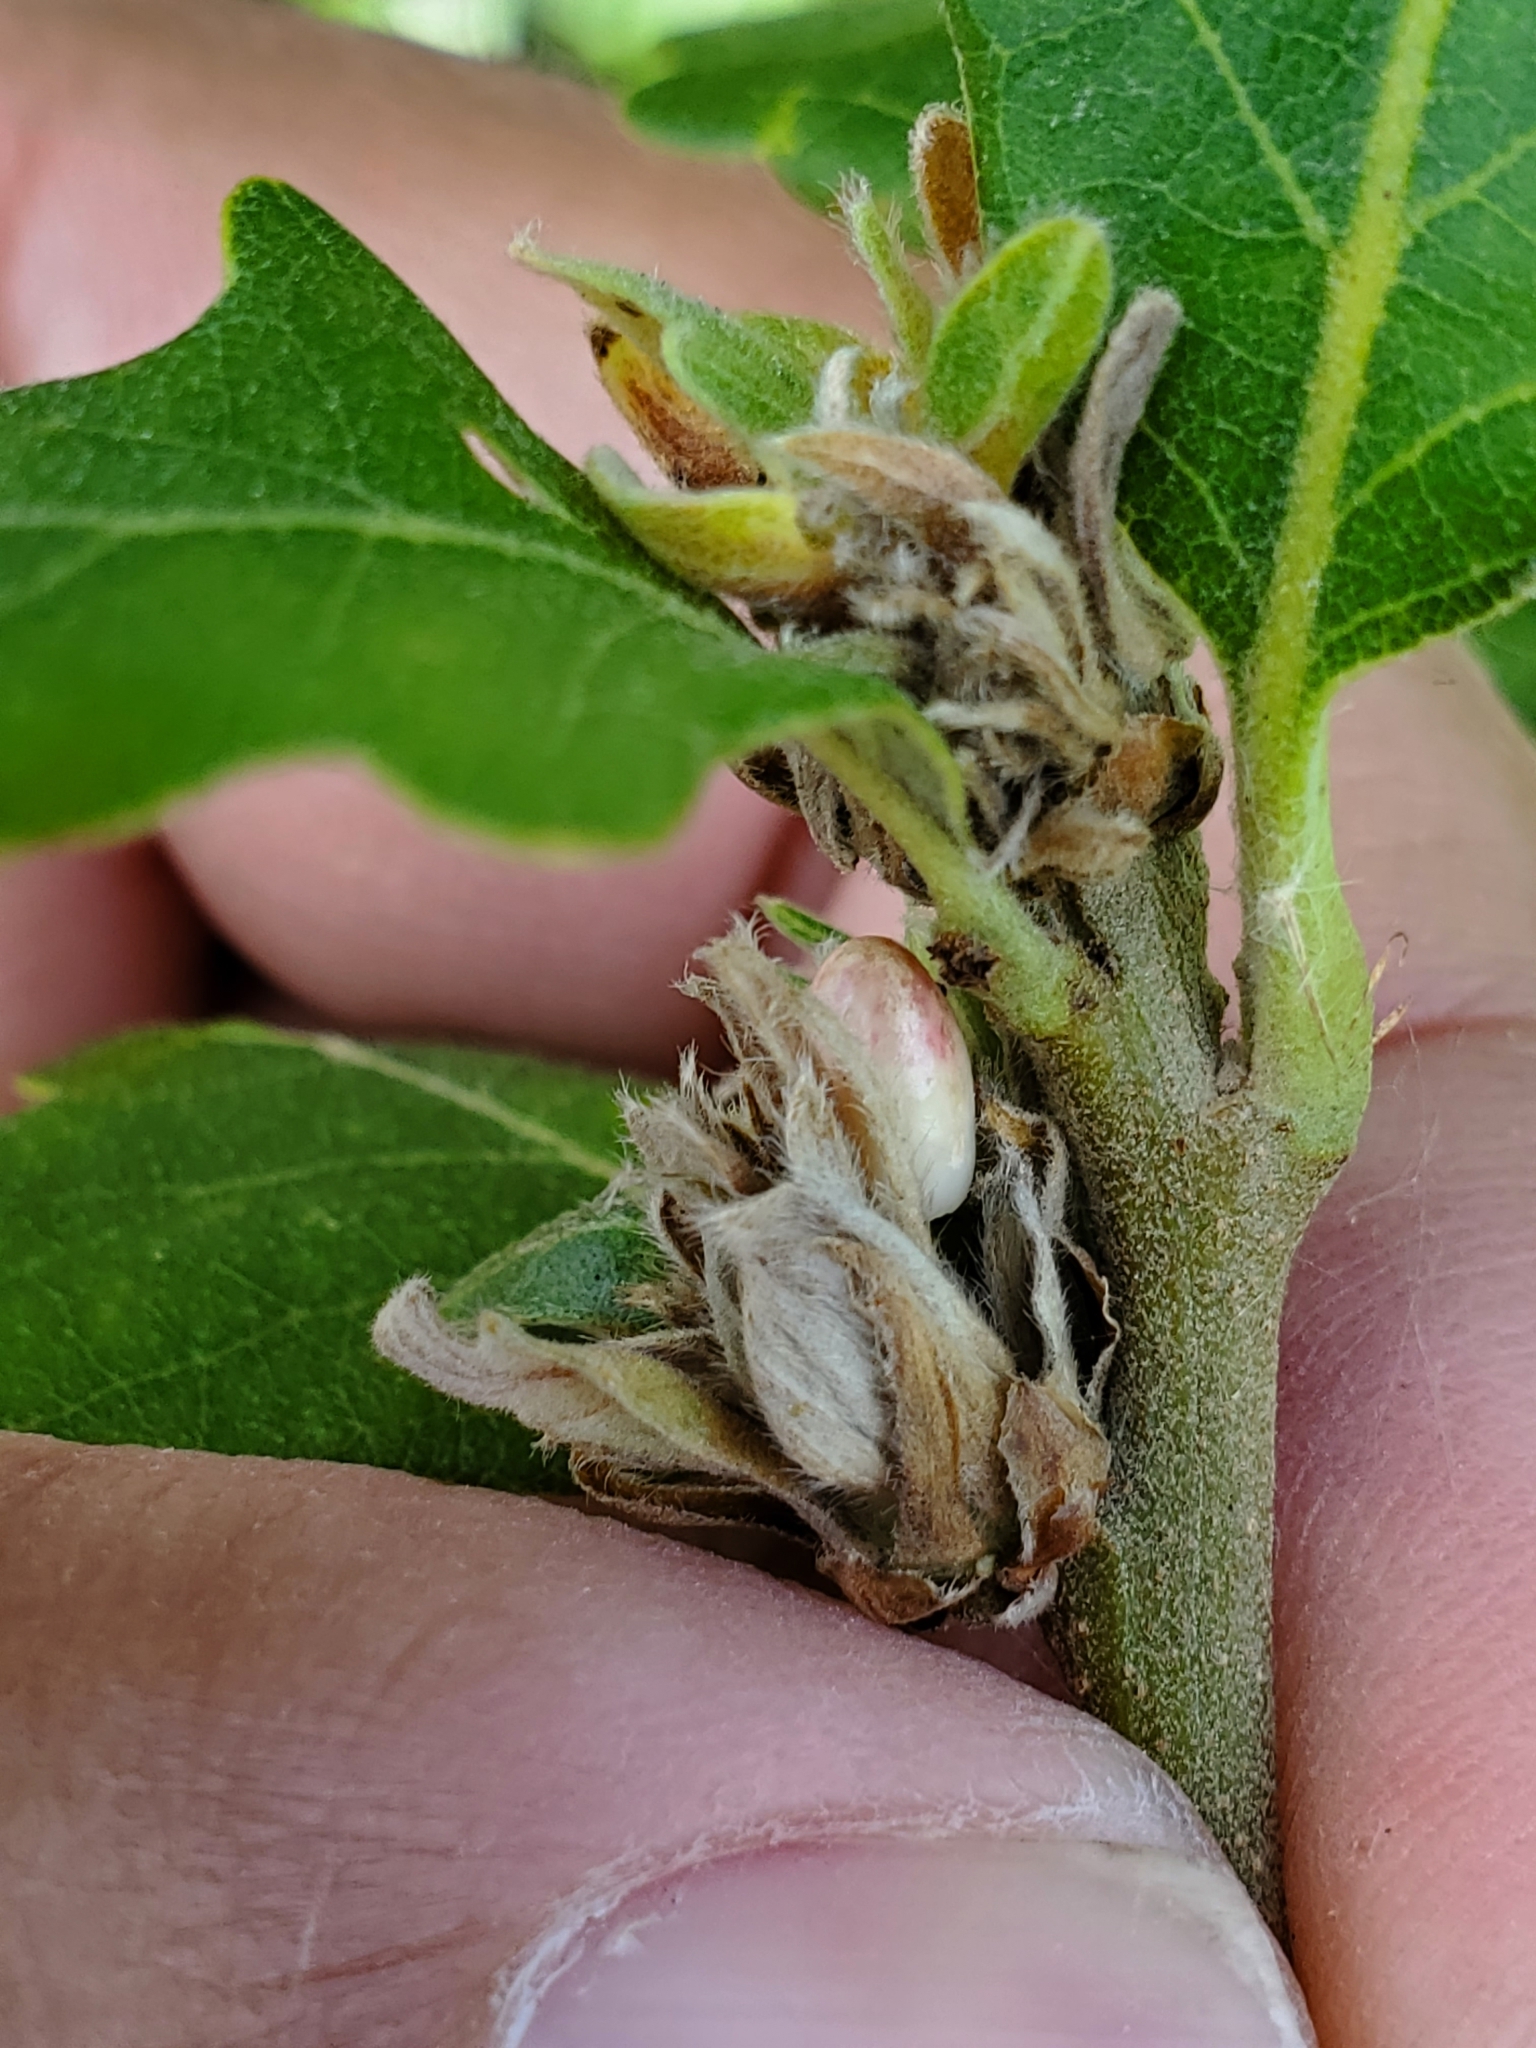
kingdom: Animalia
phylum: Arthropoda
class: Insecta
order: Hymenoptera
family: Cynipidae
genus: Andricus
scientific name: Andricus
